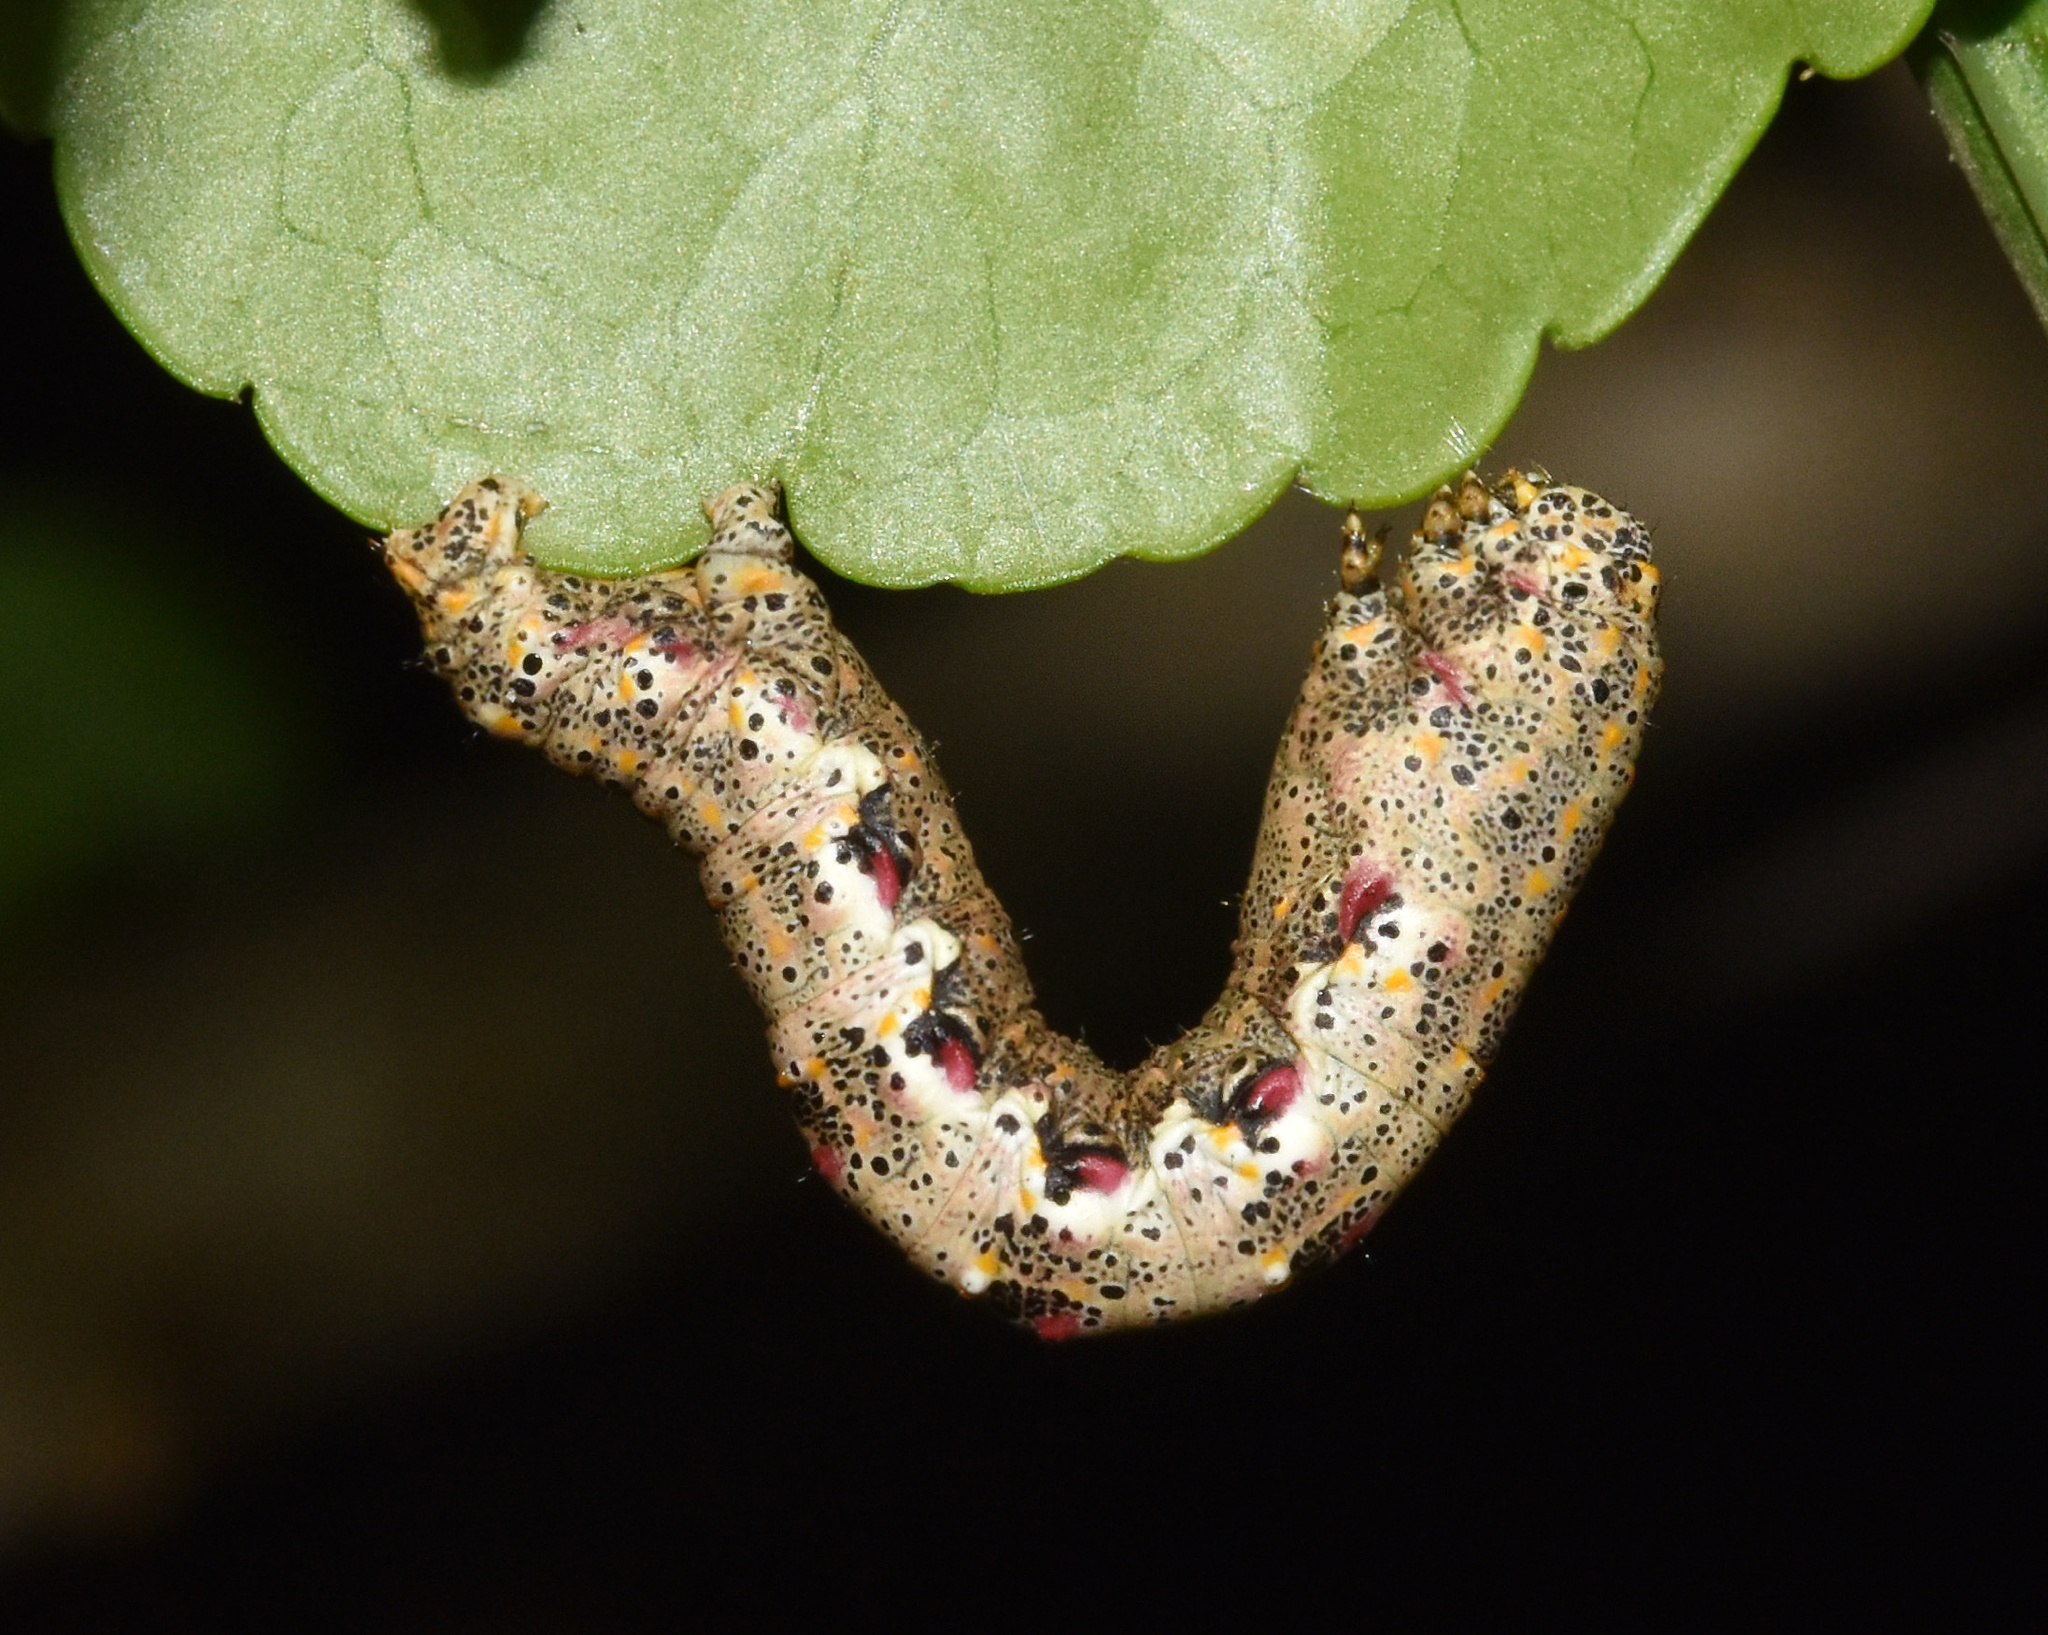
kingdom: Animalia
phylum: Arthropoda
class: Insecta
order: Lepidoptera
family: Geometridae
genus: Eulycia
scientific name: Eulycia extorris
